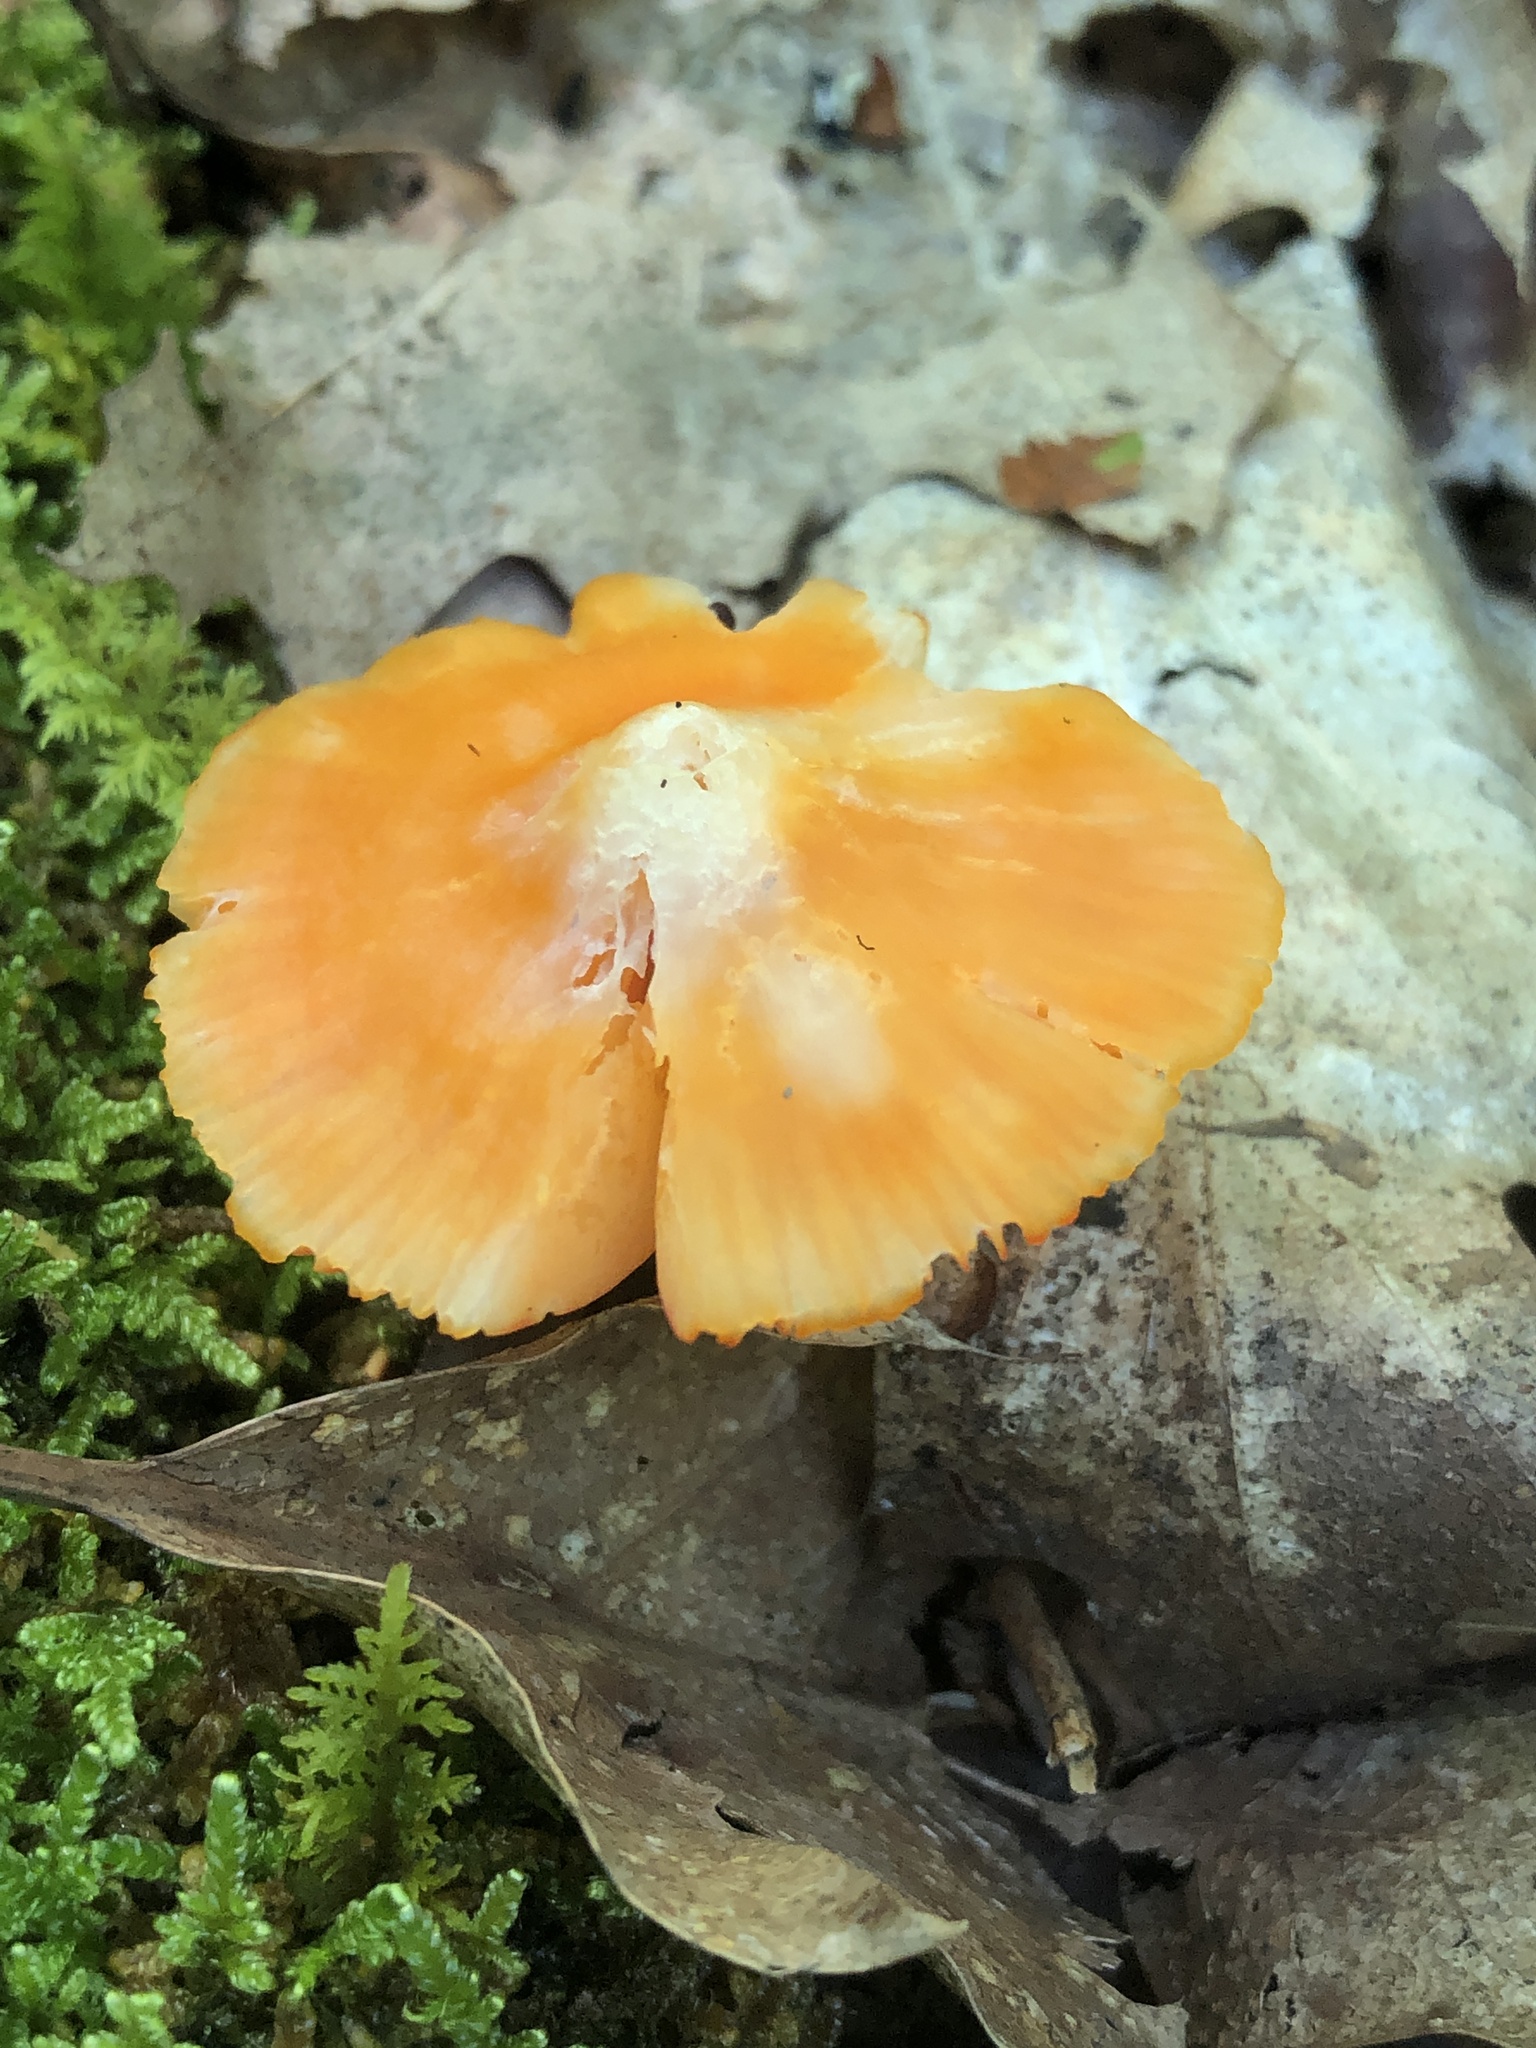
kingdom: Fungi
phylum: Basidiomycota
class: Agaricomycetes
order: Agaricales
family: Hygrophoraceae
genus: Humidicutis
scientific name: Humidicutis marginata
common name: Orange gilled waxcap
